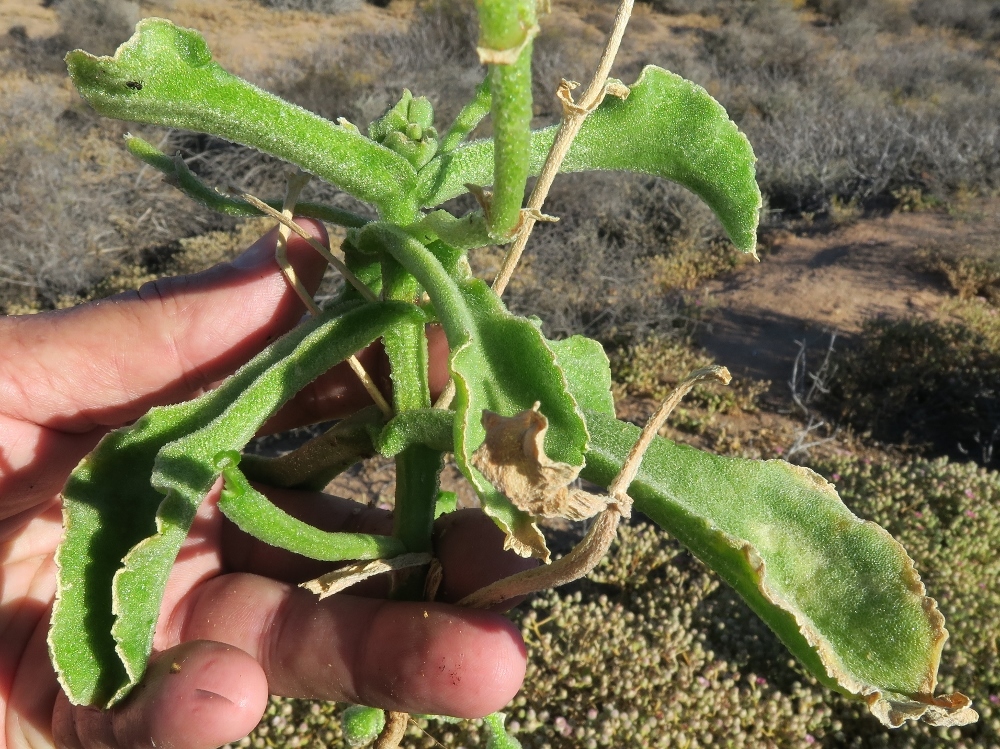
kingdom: Plantae
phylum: Tracheophyta
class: Magnoliopsida
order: Caryophyllales
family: Aizoaceae
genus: Mesembryanthemum
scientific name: Mesembryanthemum guerichianum
